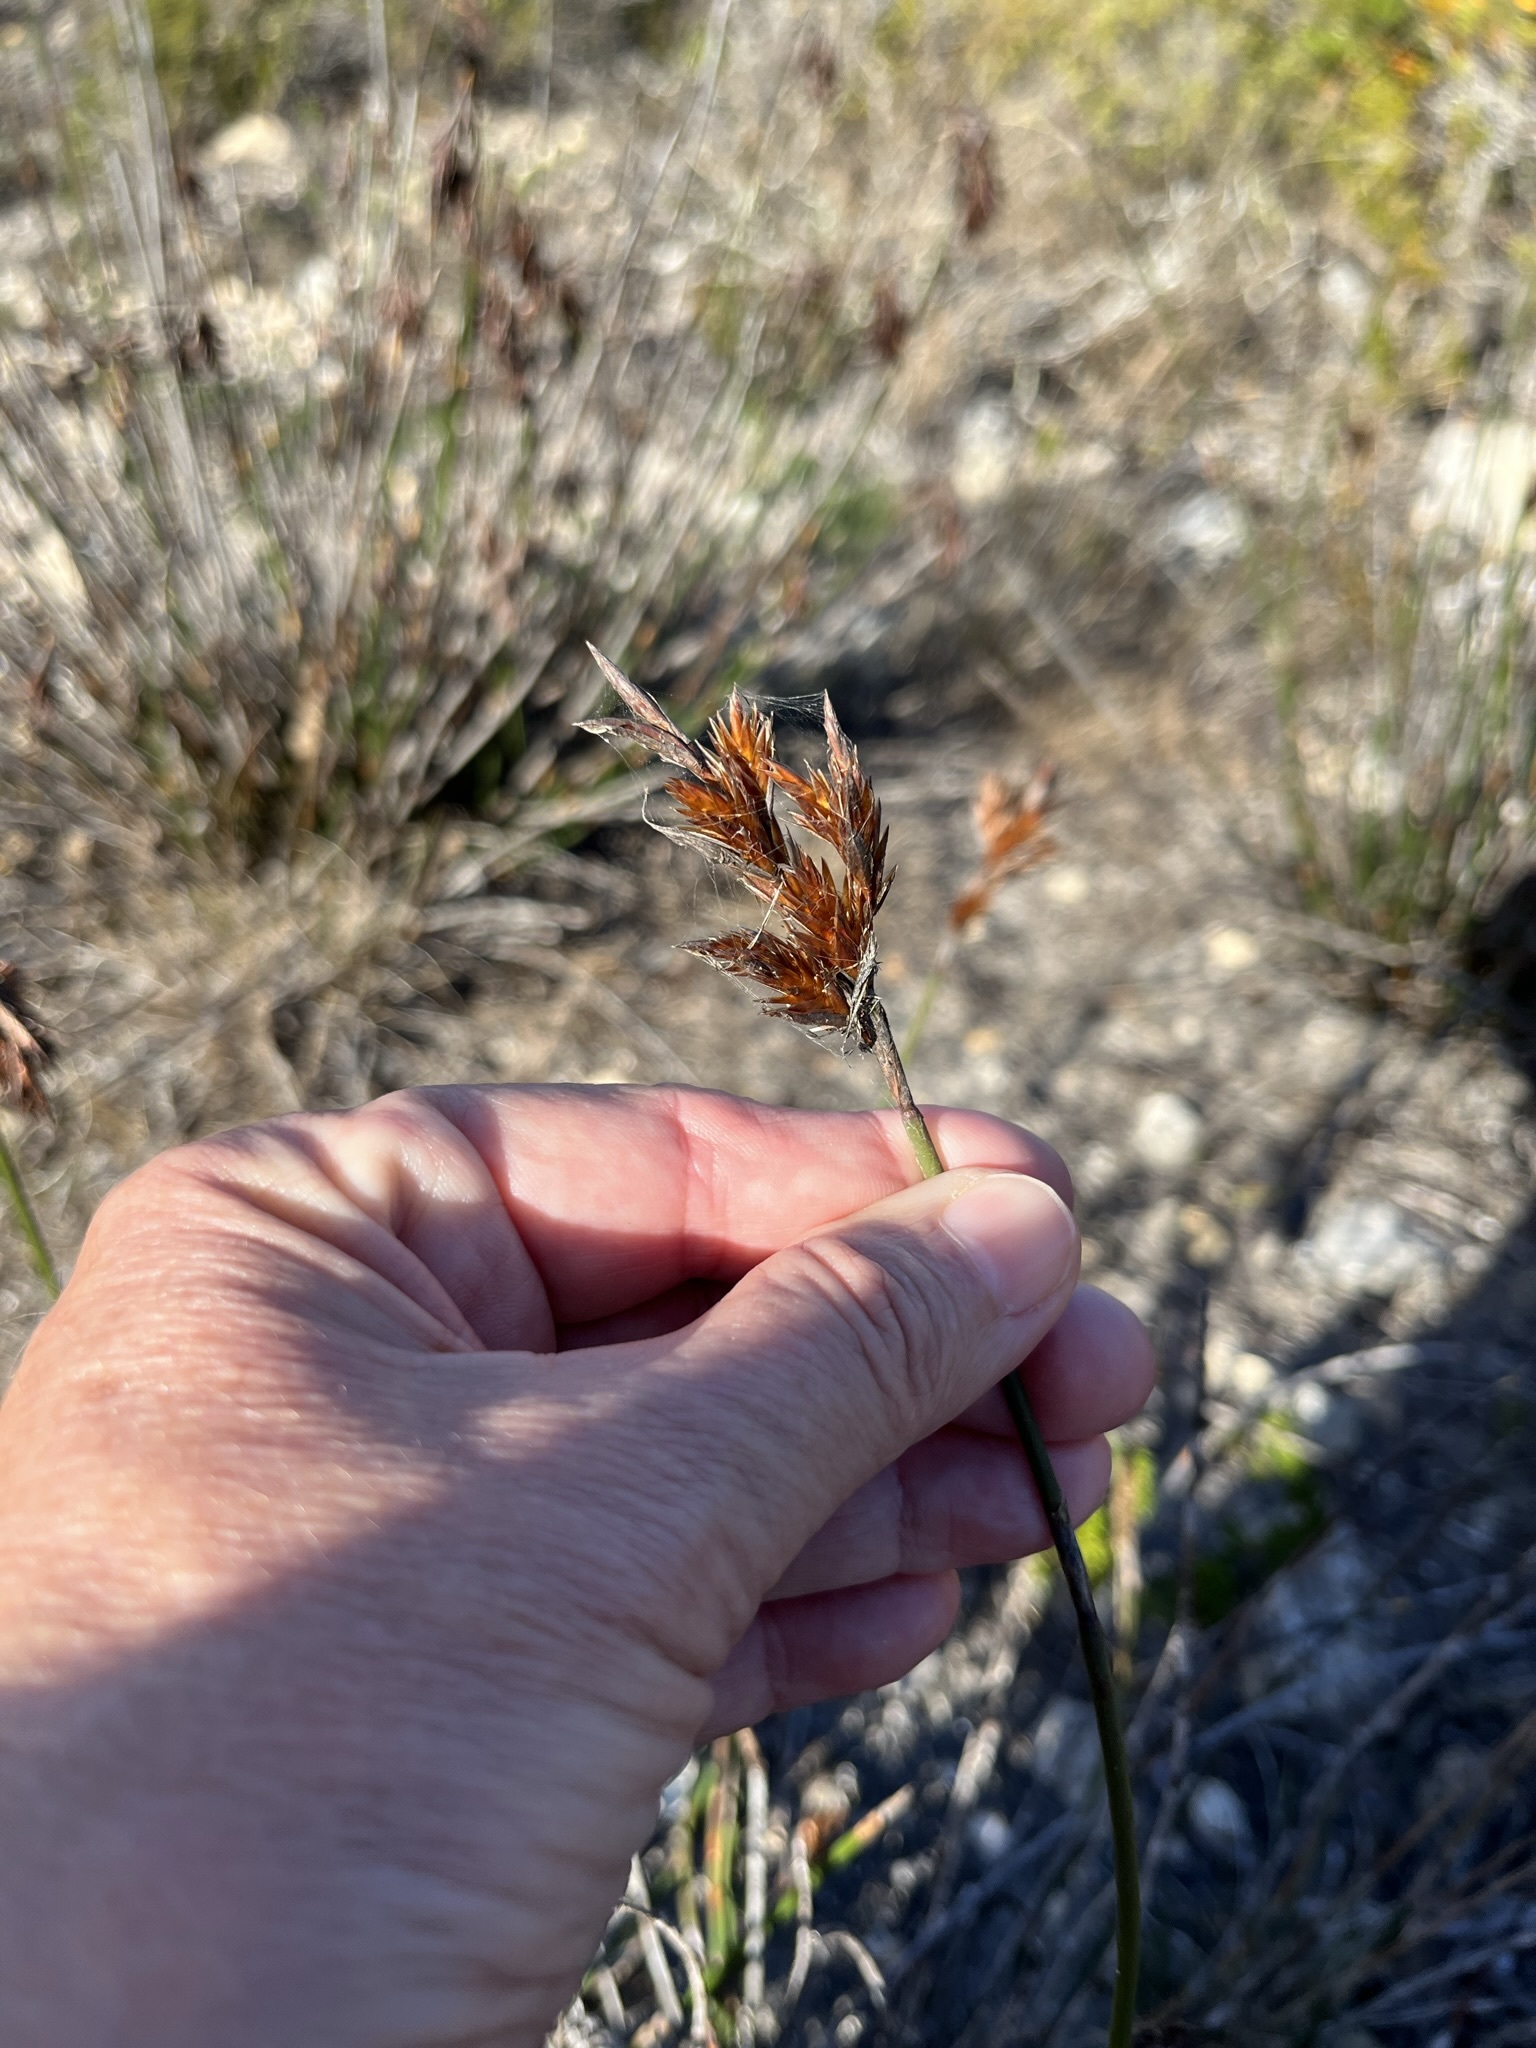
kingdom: Plantae
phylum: Tracheophyta
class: Liliopsida
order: Poales
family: Restionaceae
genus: Thamnochortus
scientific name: Thamnochortus fraternus
